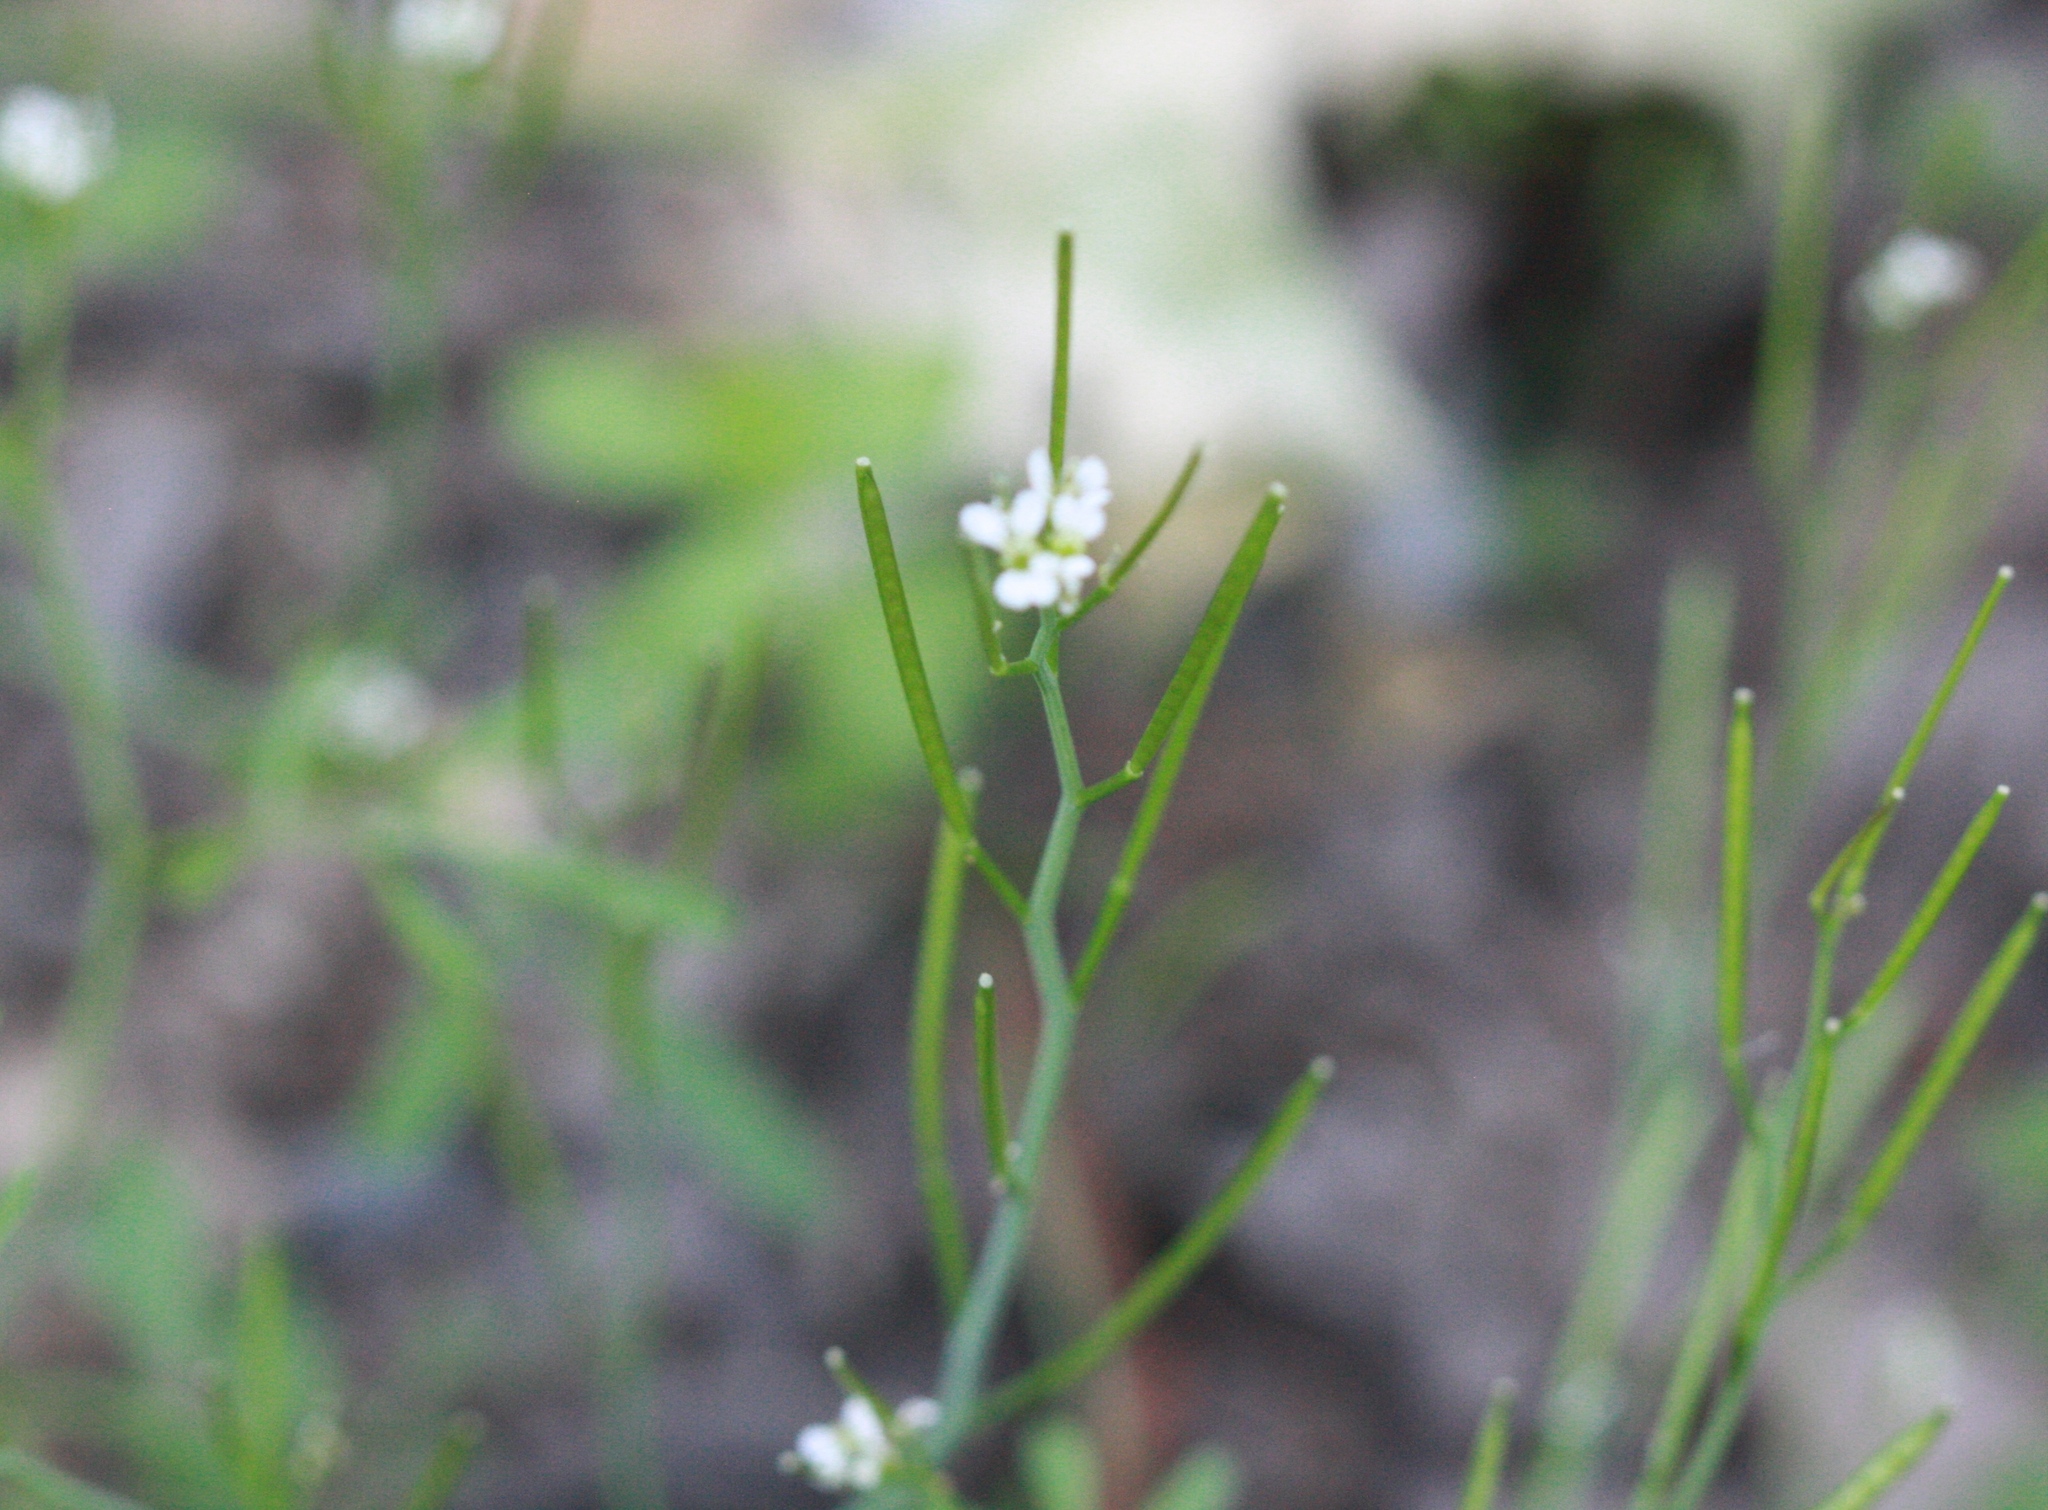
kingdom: Plantae
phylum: Tracheophyta
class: Magnoliopsida
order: Brassicales
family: Brassicaceae
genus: Cardamine
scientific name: Cardamine hirsuta
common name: Hairy bittercress
